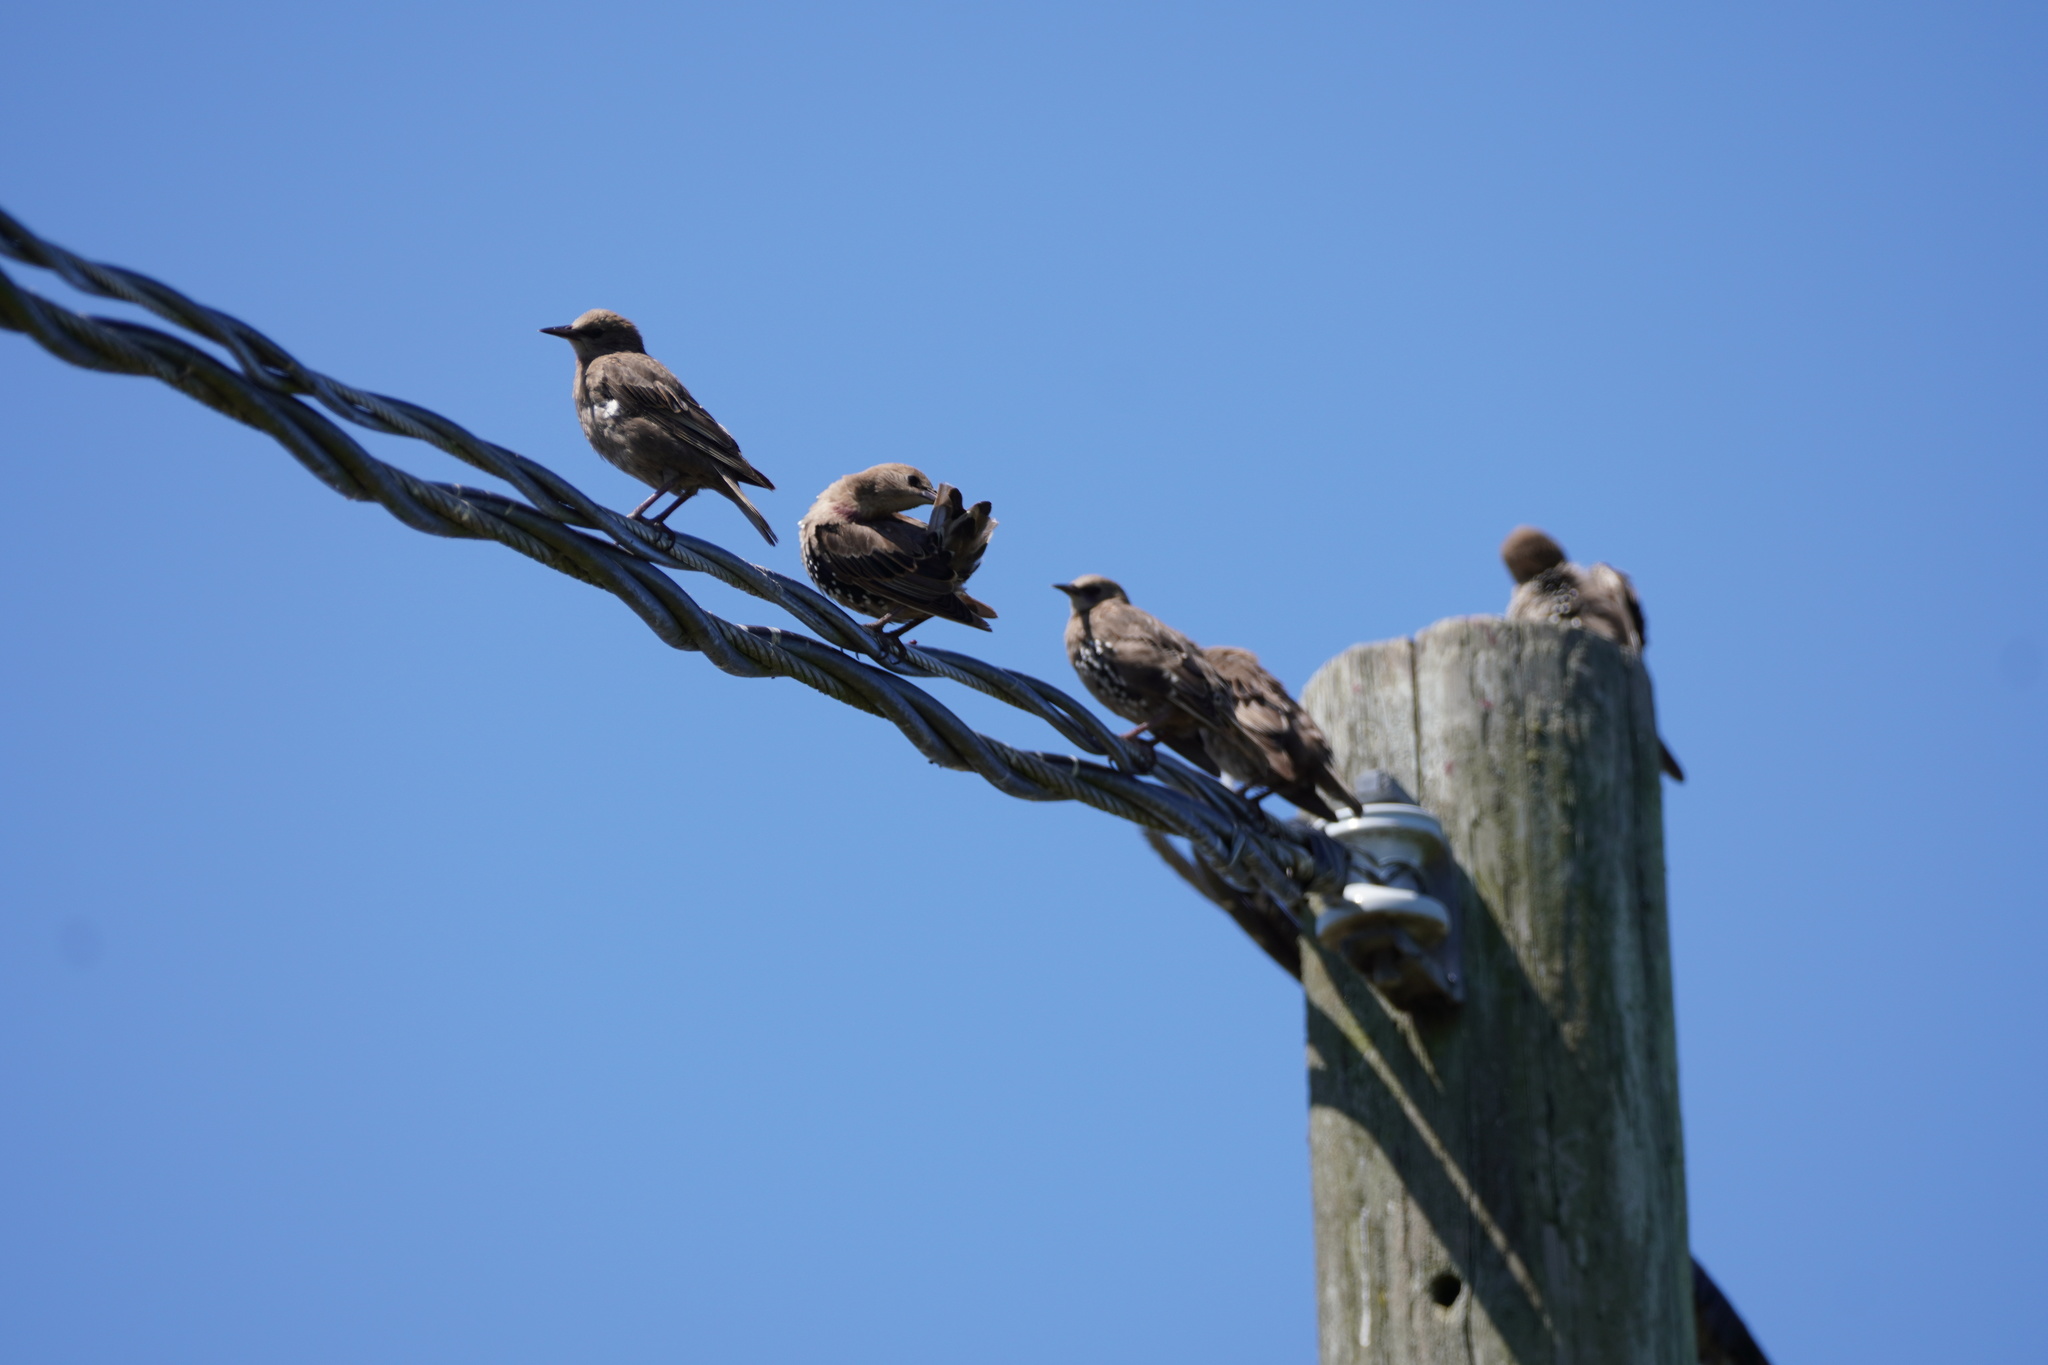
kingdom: Animalia
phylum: Chordata
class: Aves
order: Passeriformes
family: Sturnidae
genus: Sturnus
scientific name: Sturnus vulgaris
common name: Common starling
